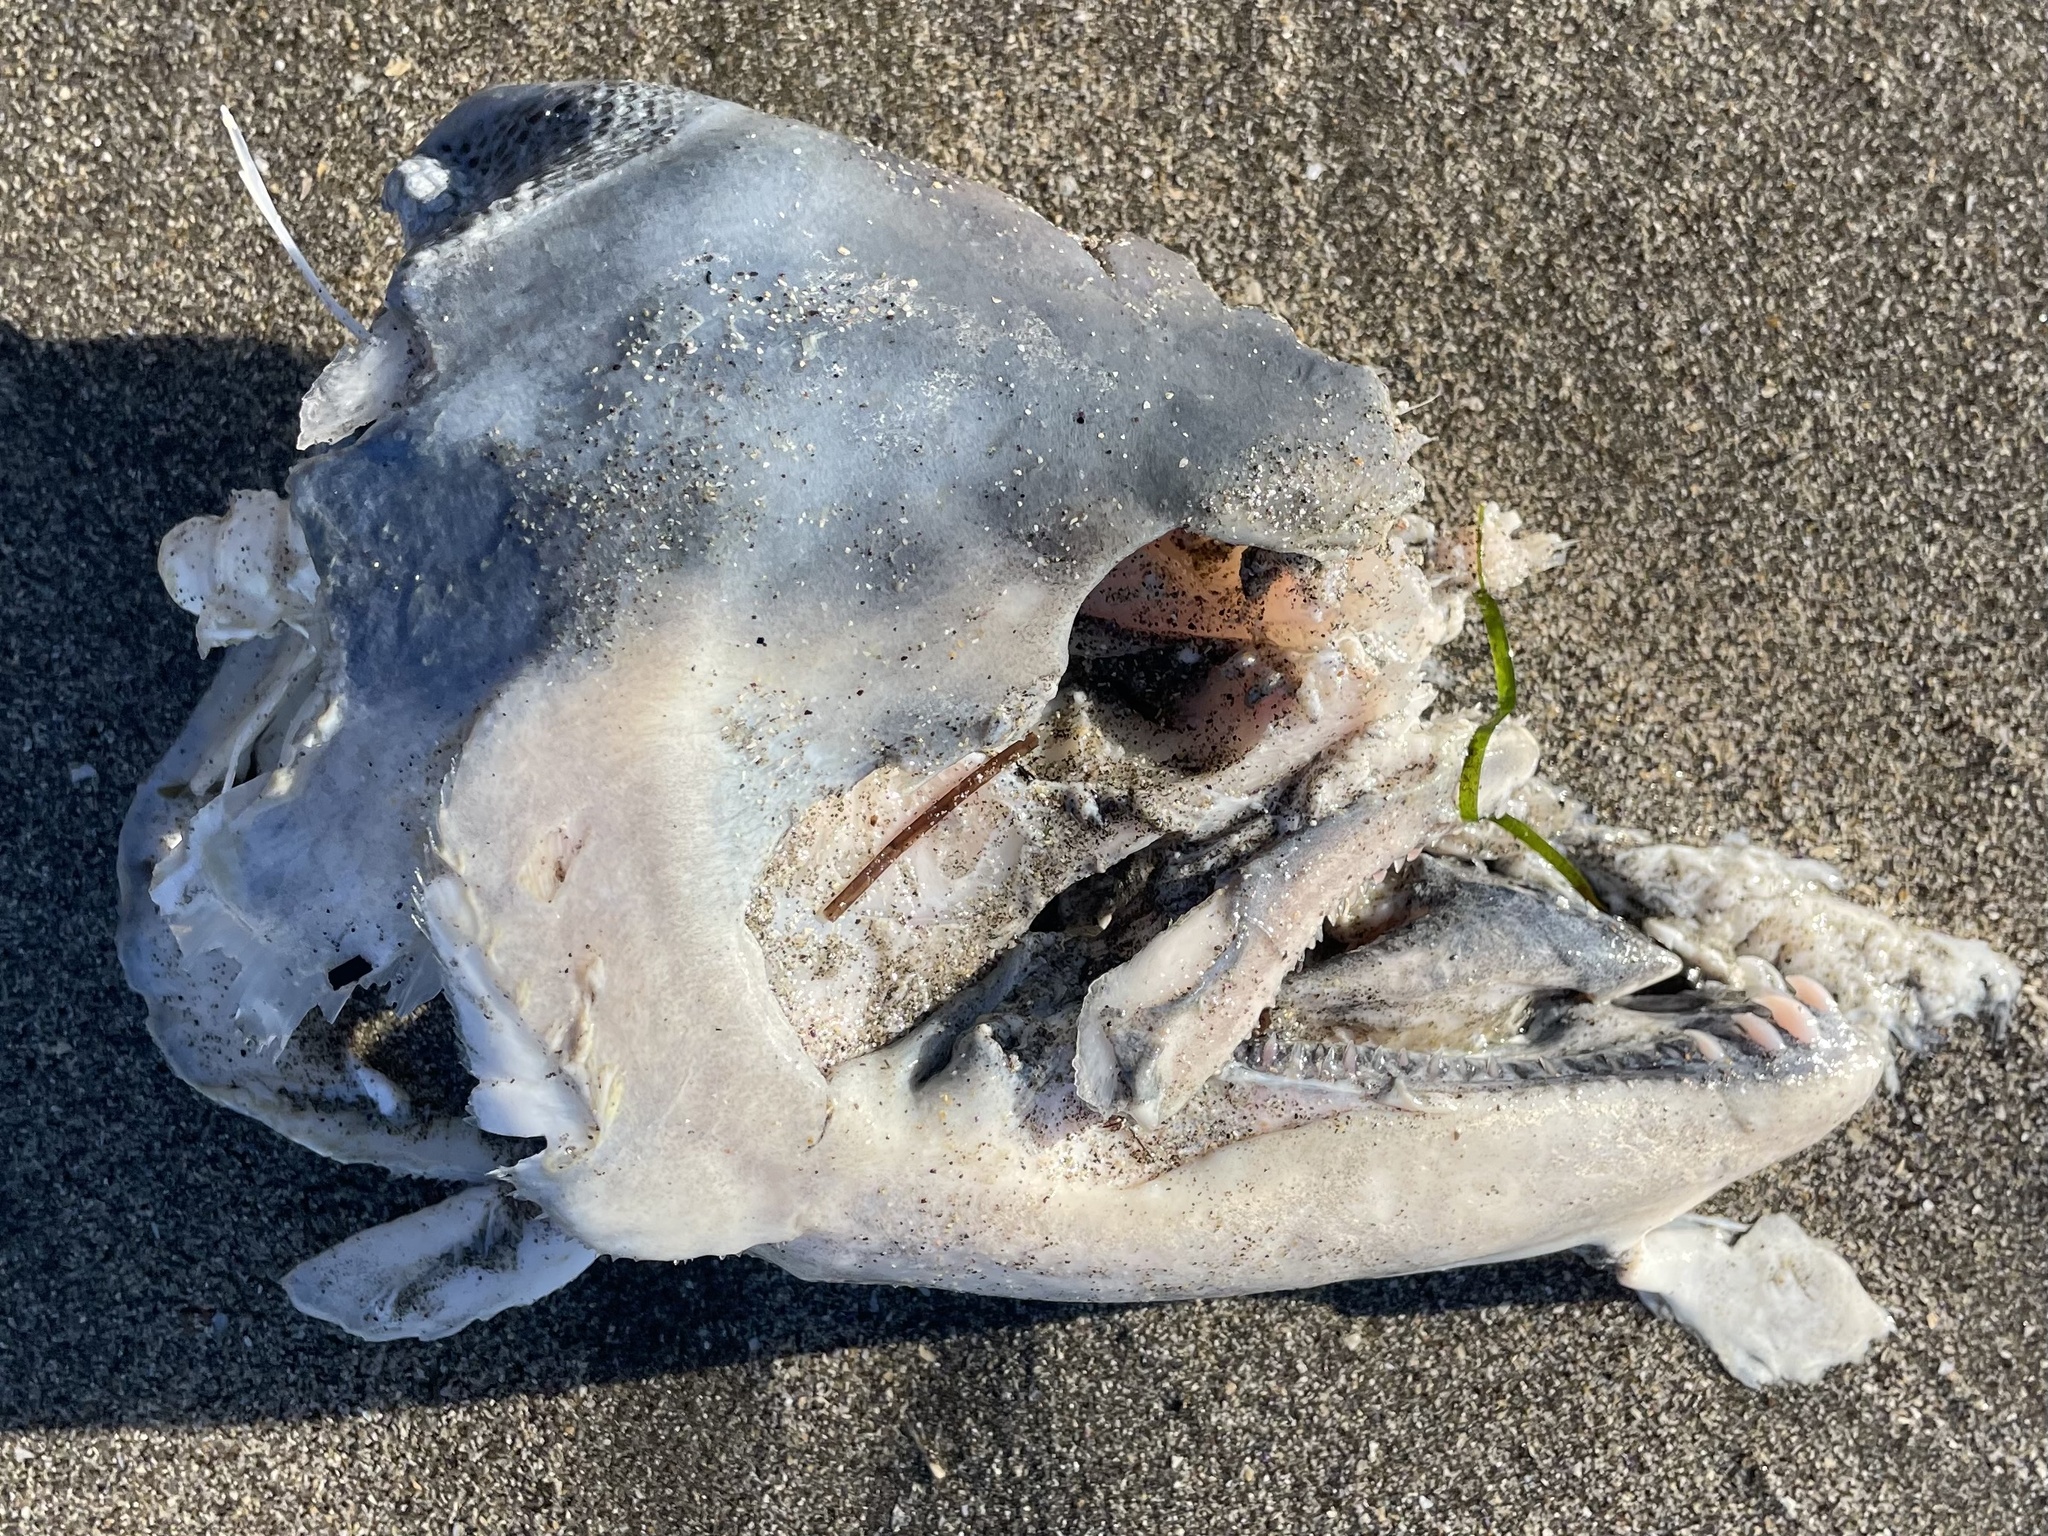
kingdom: Animalia
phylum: Chordata
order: Salmoniformes
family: Salmonidae
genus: Oncorhynchus
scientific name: Oncorhynchus tshawytscha
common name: Chinook salmon
